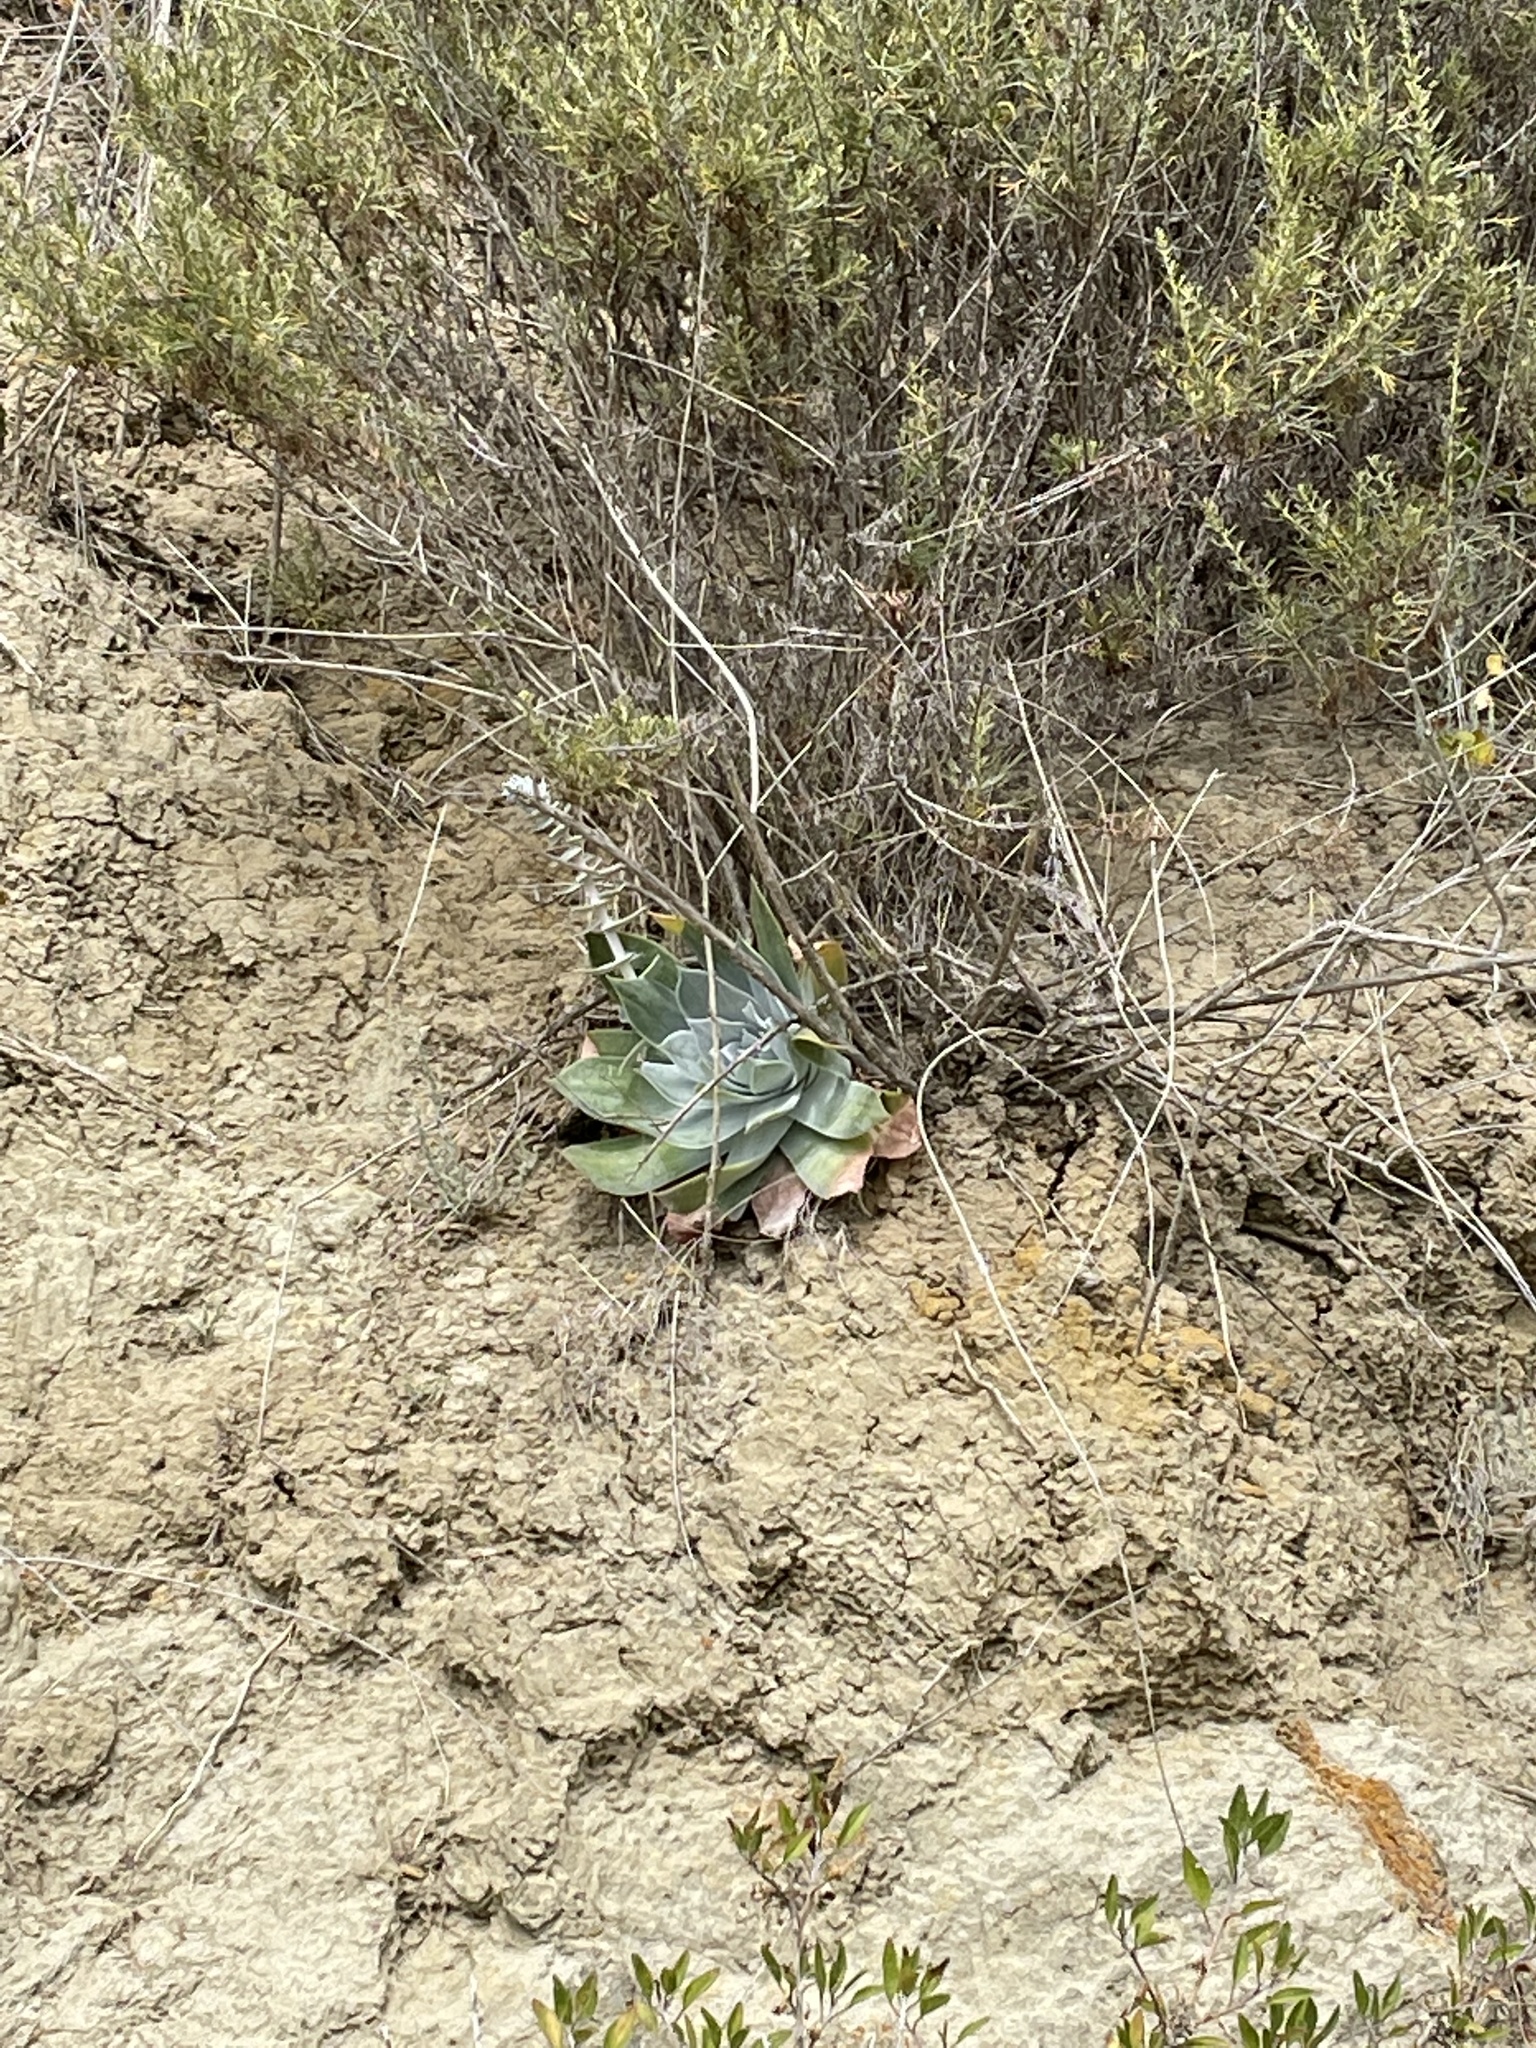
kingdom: Plantae
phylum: Tracheophyta
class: Magnoliopsida
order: Saxifragales
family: Crassulaceae
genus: Dudleya
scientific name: Dudleya pulverulenta
